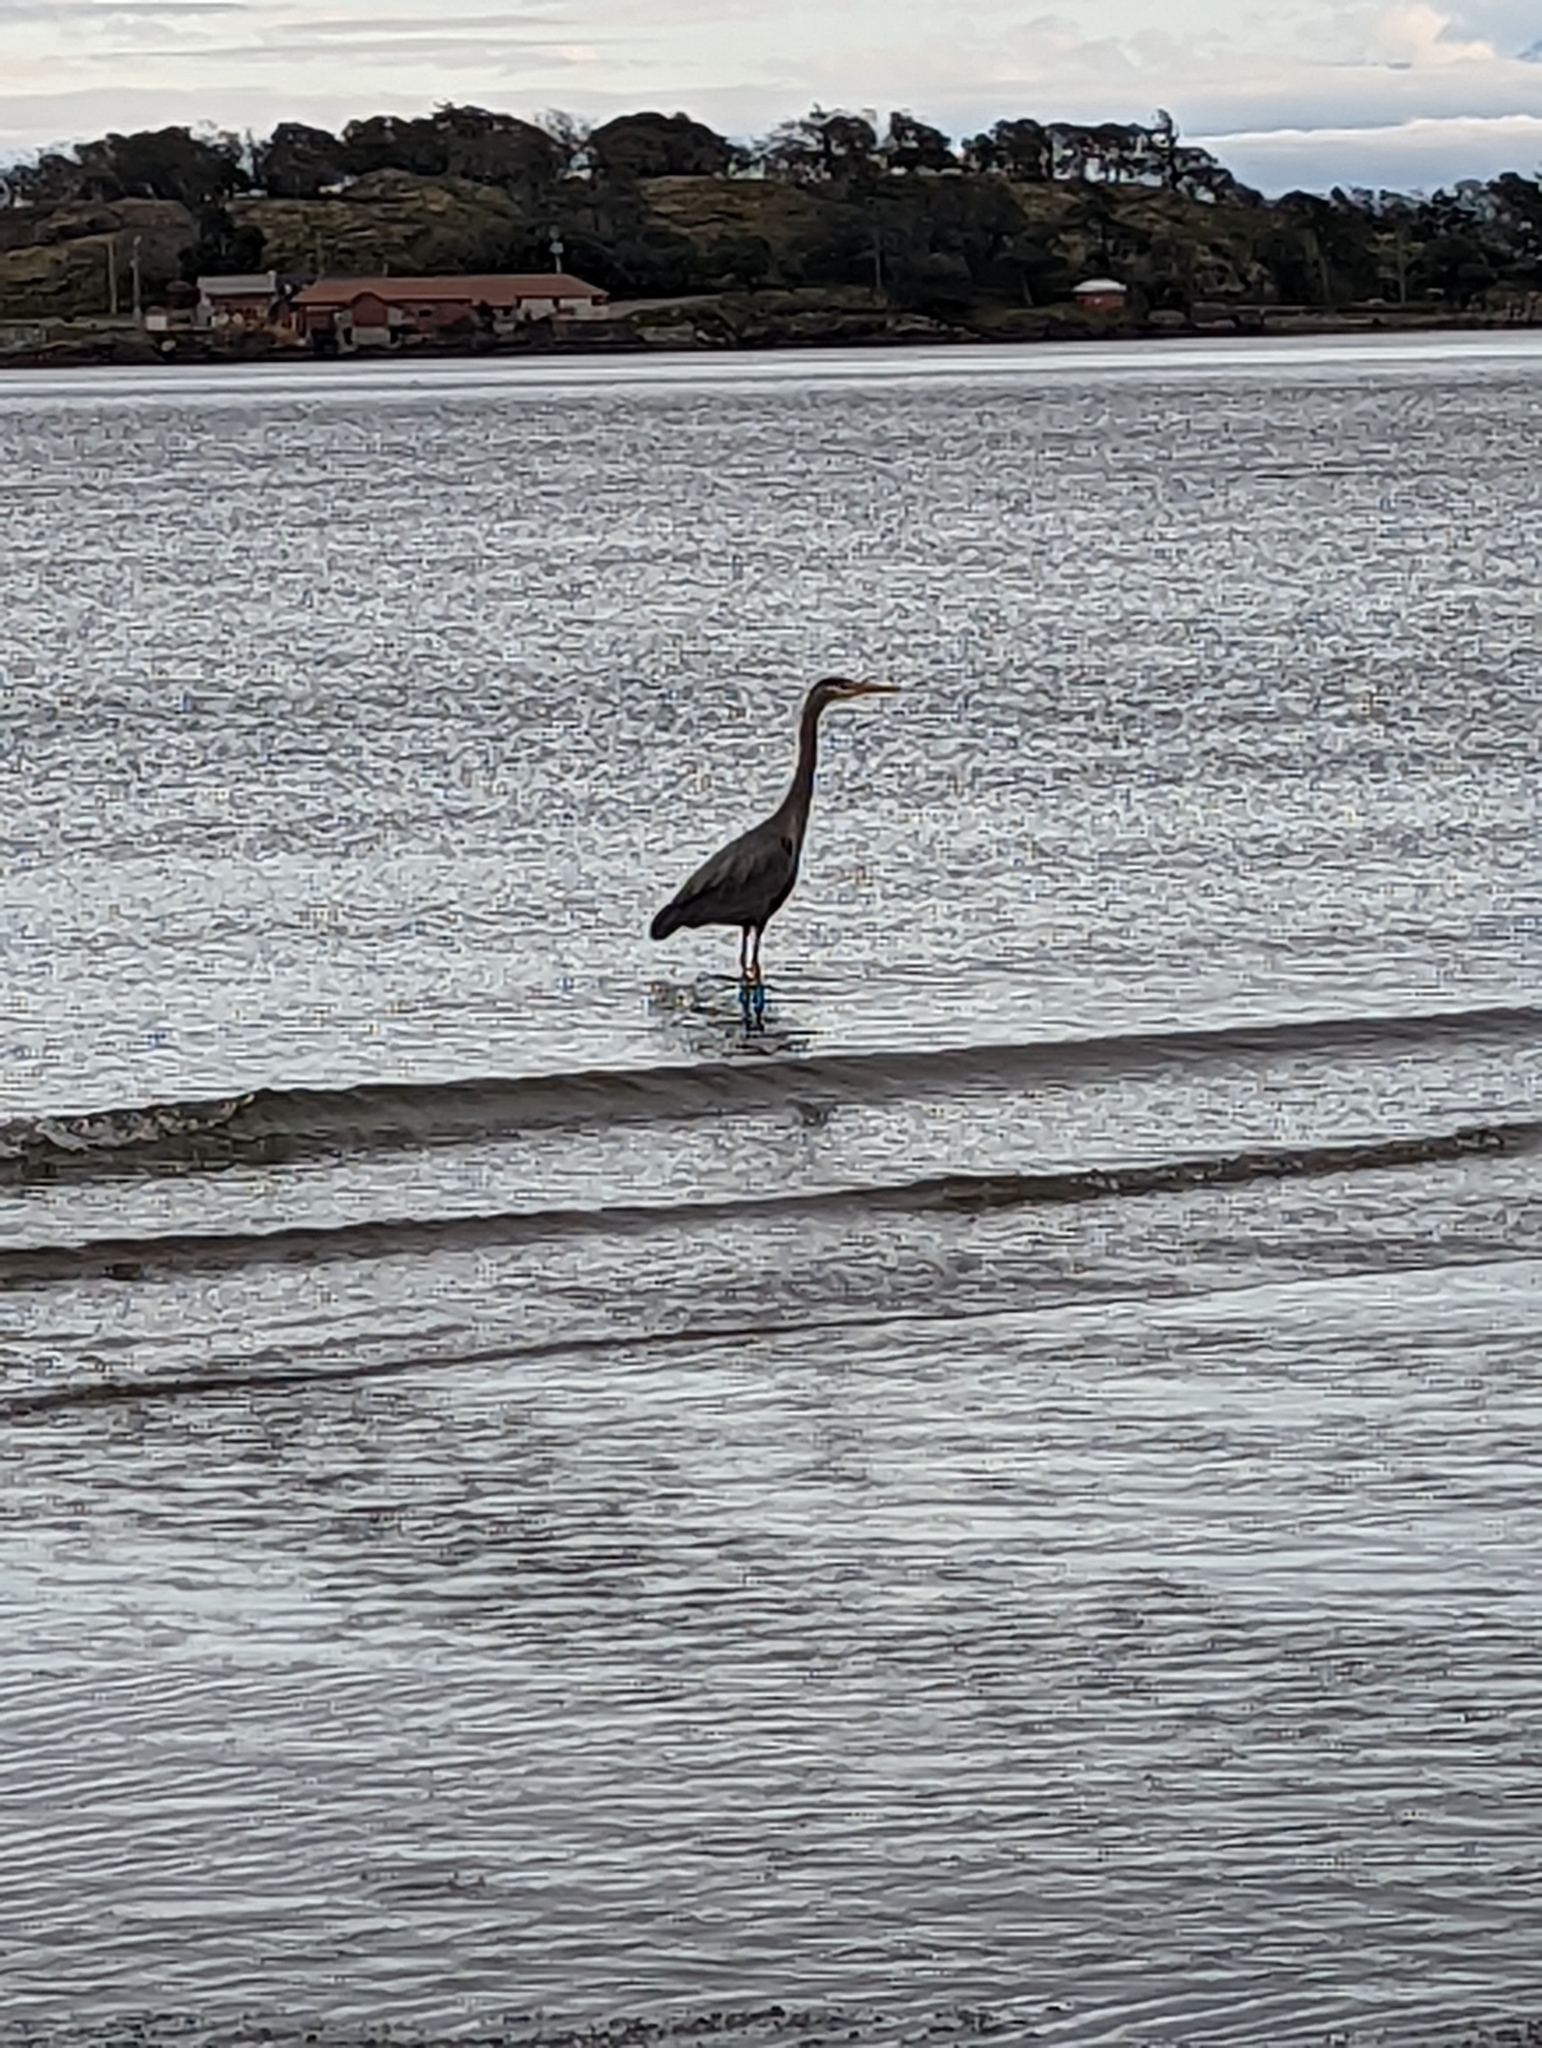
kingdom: Animalia
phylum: Chordata
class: Aves
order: Pelecaniformes
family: Ardeidae
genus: Ardea
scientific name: Ardea herodias
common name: Great blue heron
